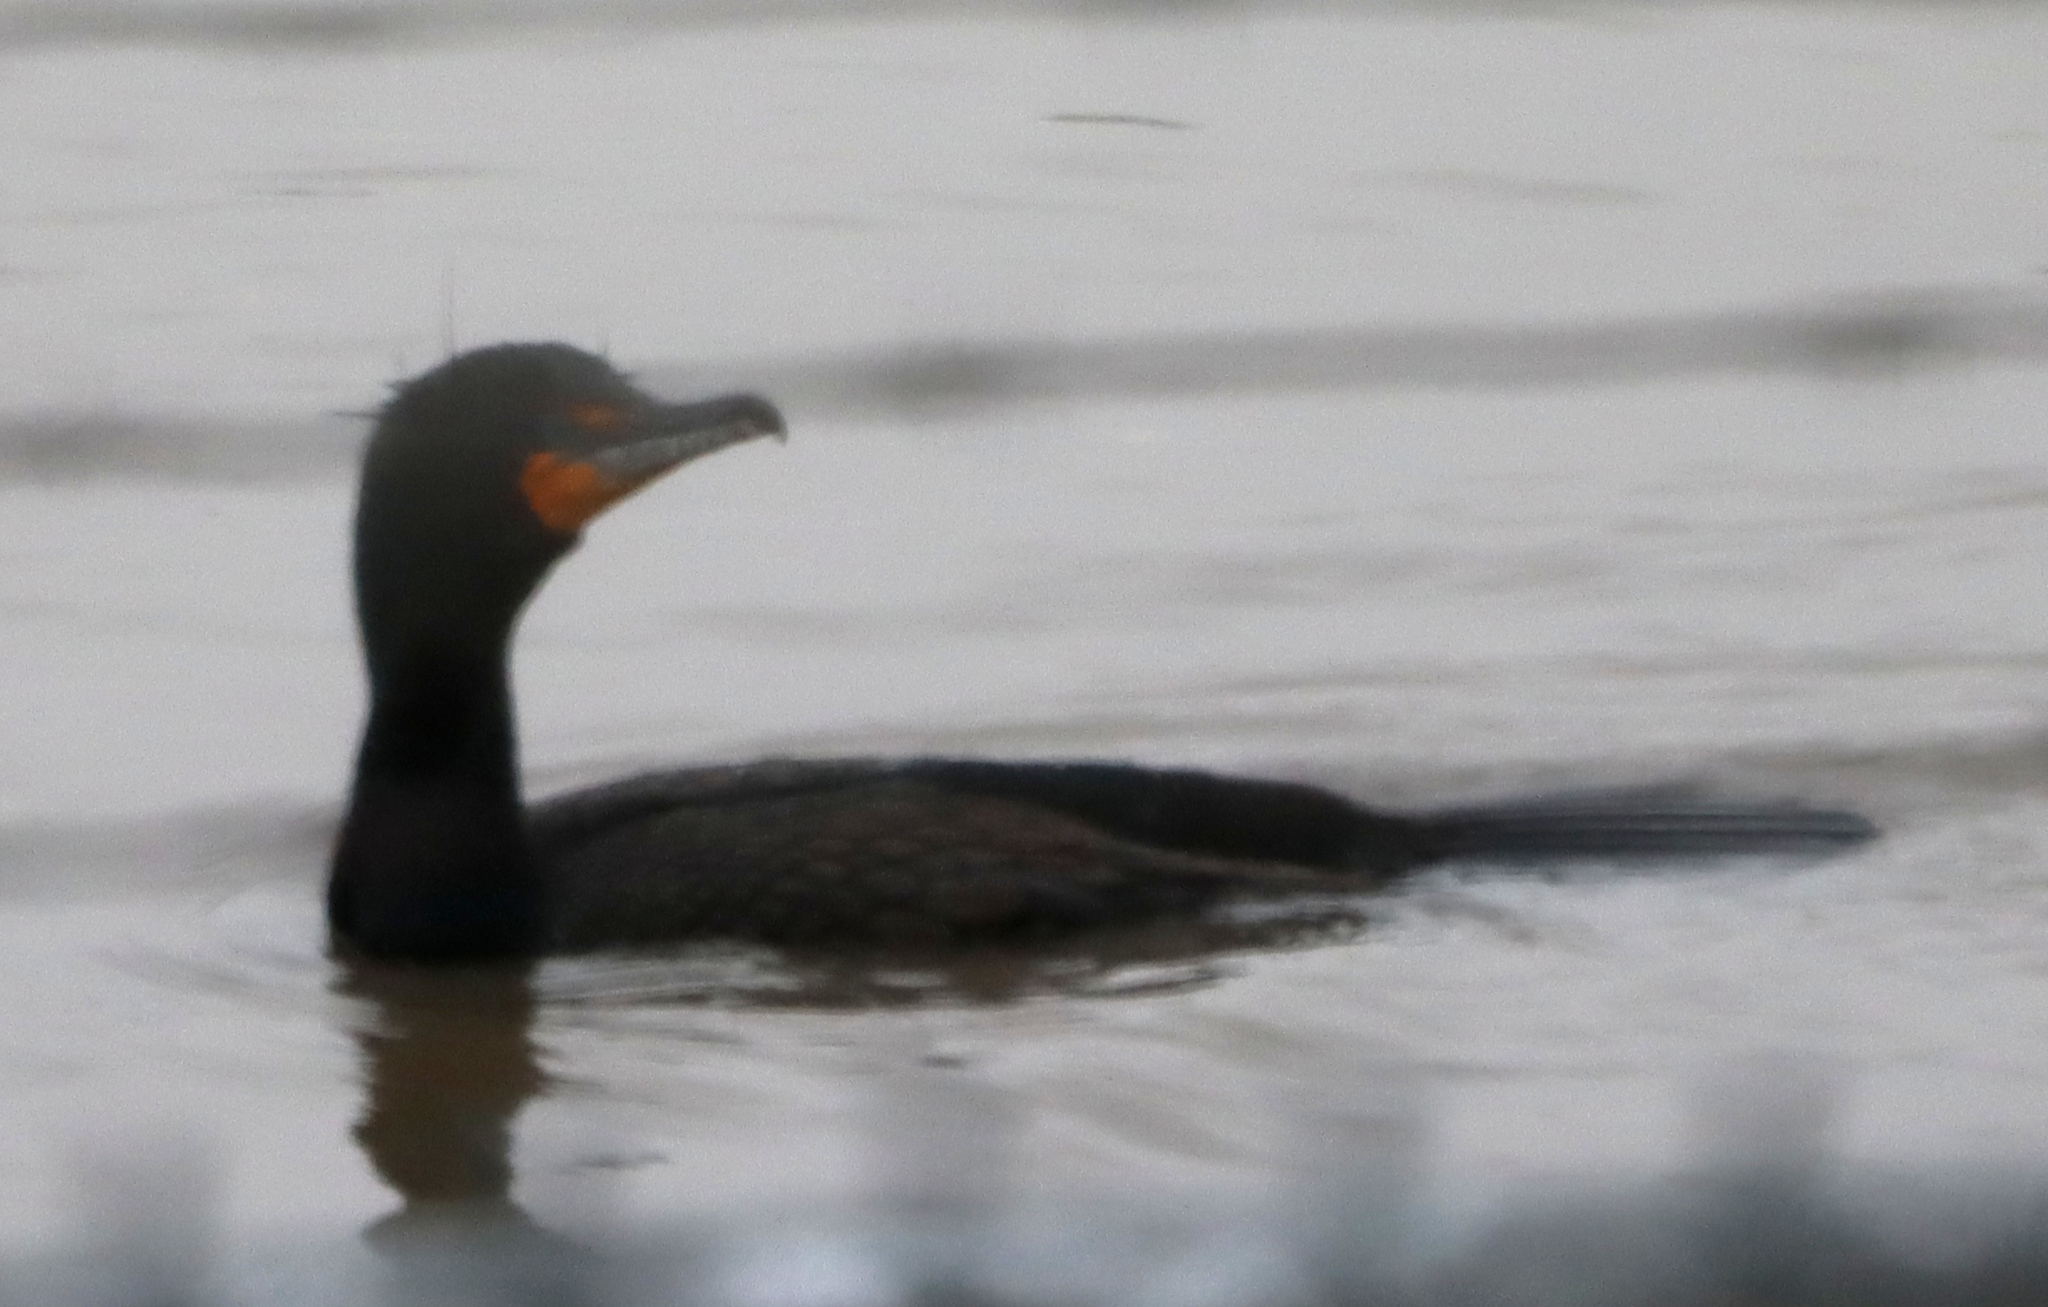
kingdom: Animalia
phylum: Chordata
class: Aves
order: Suliformes
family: Phalacrocoracidae
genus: Phalacrocorax
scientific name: Phalacrocorax auritus
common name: Double-crested cormorant
